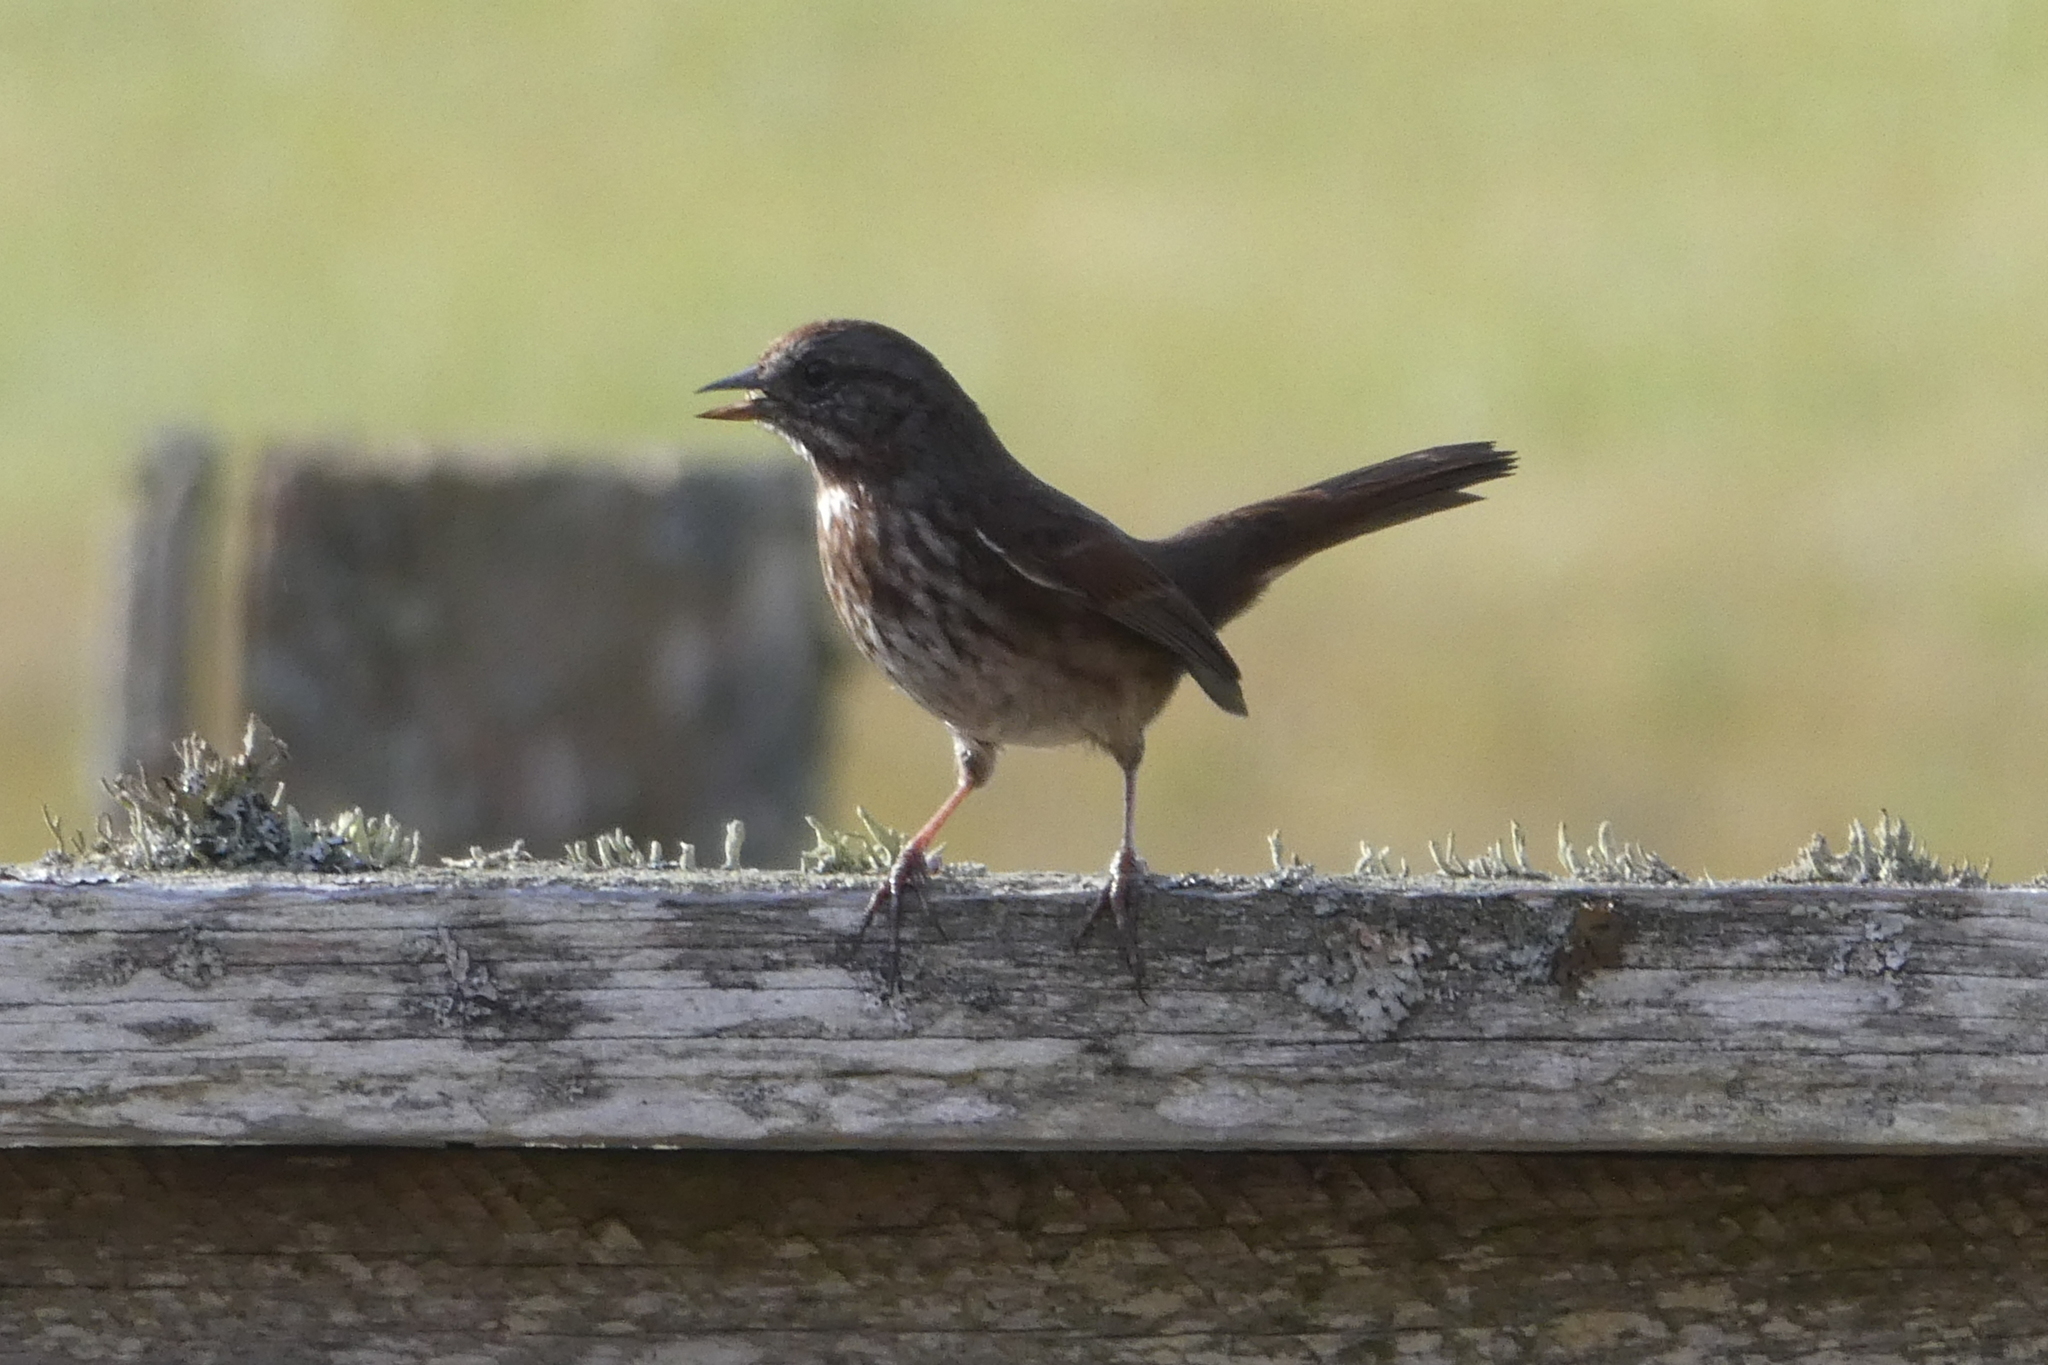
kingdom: Animalia
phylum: Chordata
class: Aves
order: Passeriformes
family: Passerellidae
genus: Melospiza
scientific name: Melospiza melodia
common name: Song sparrow
